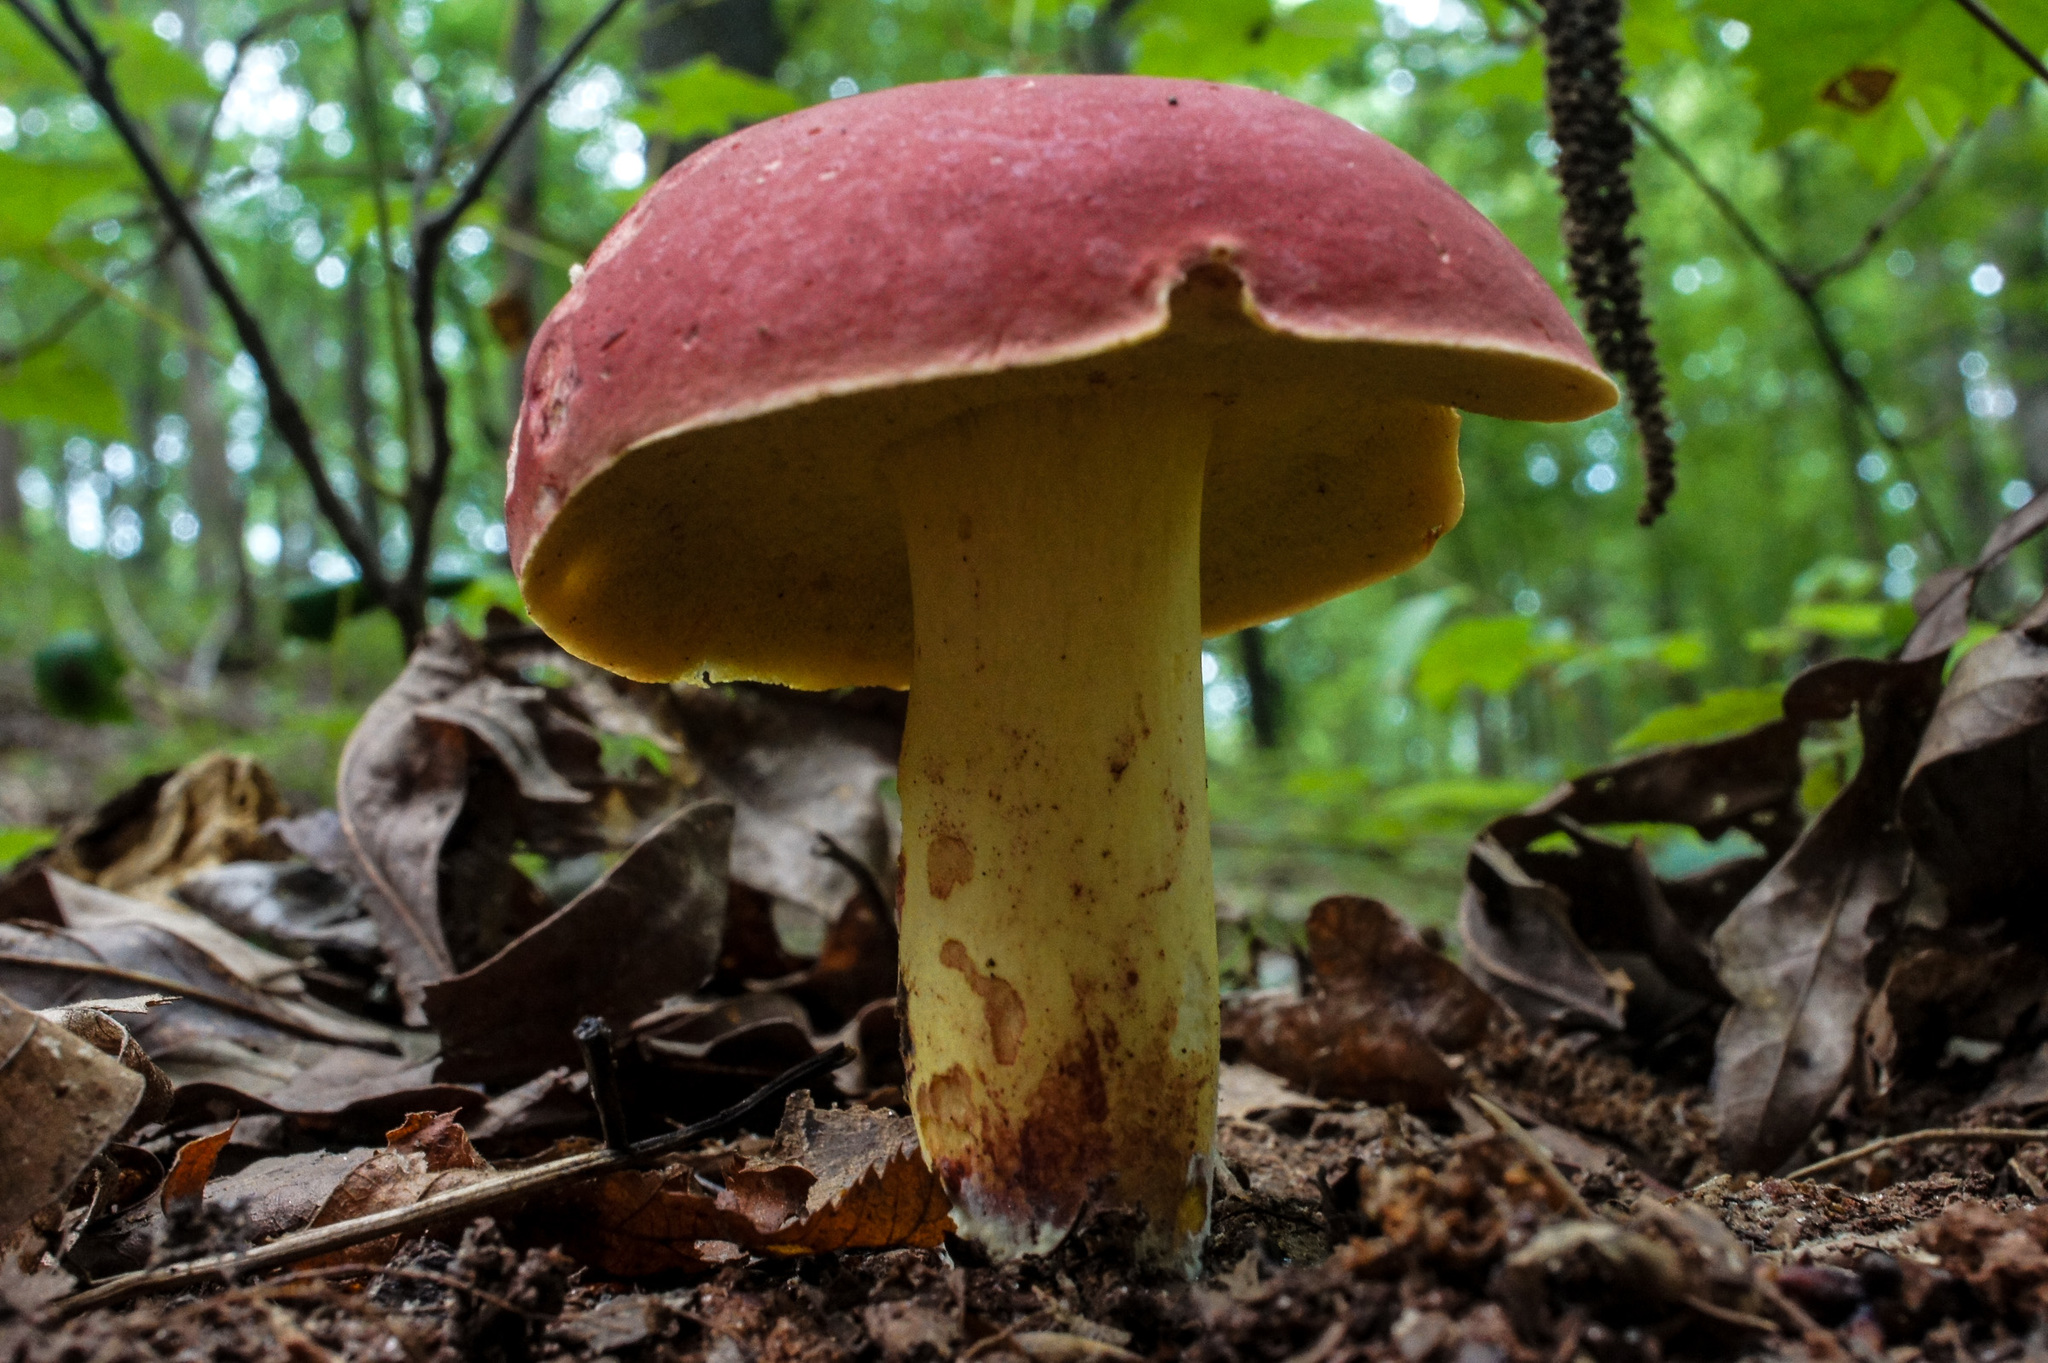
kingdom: Fungi
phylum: Basidiomycota
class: Agaricomycetes
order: Boletales
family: Boletaceae
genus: Boletus
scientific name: Boletus roodyi
